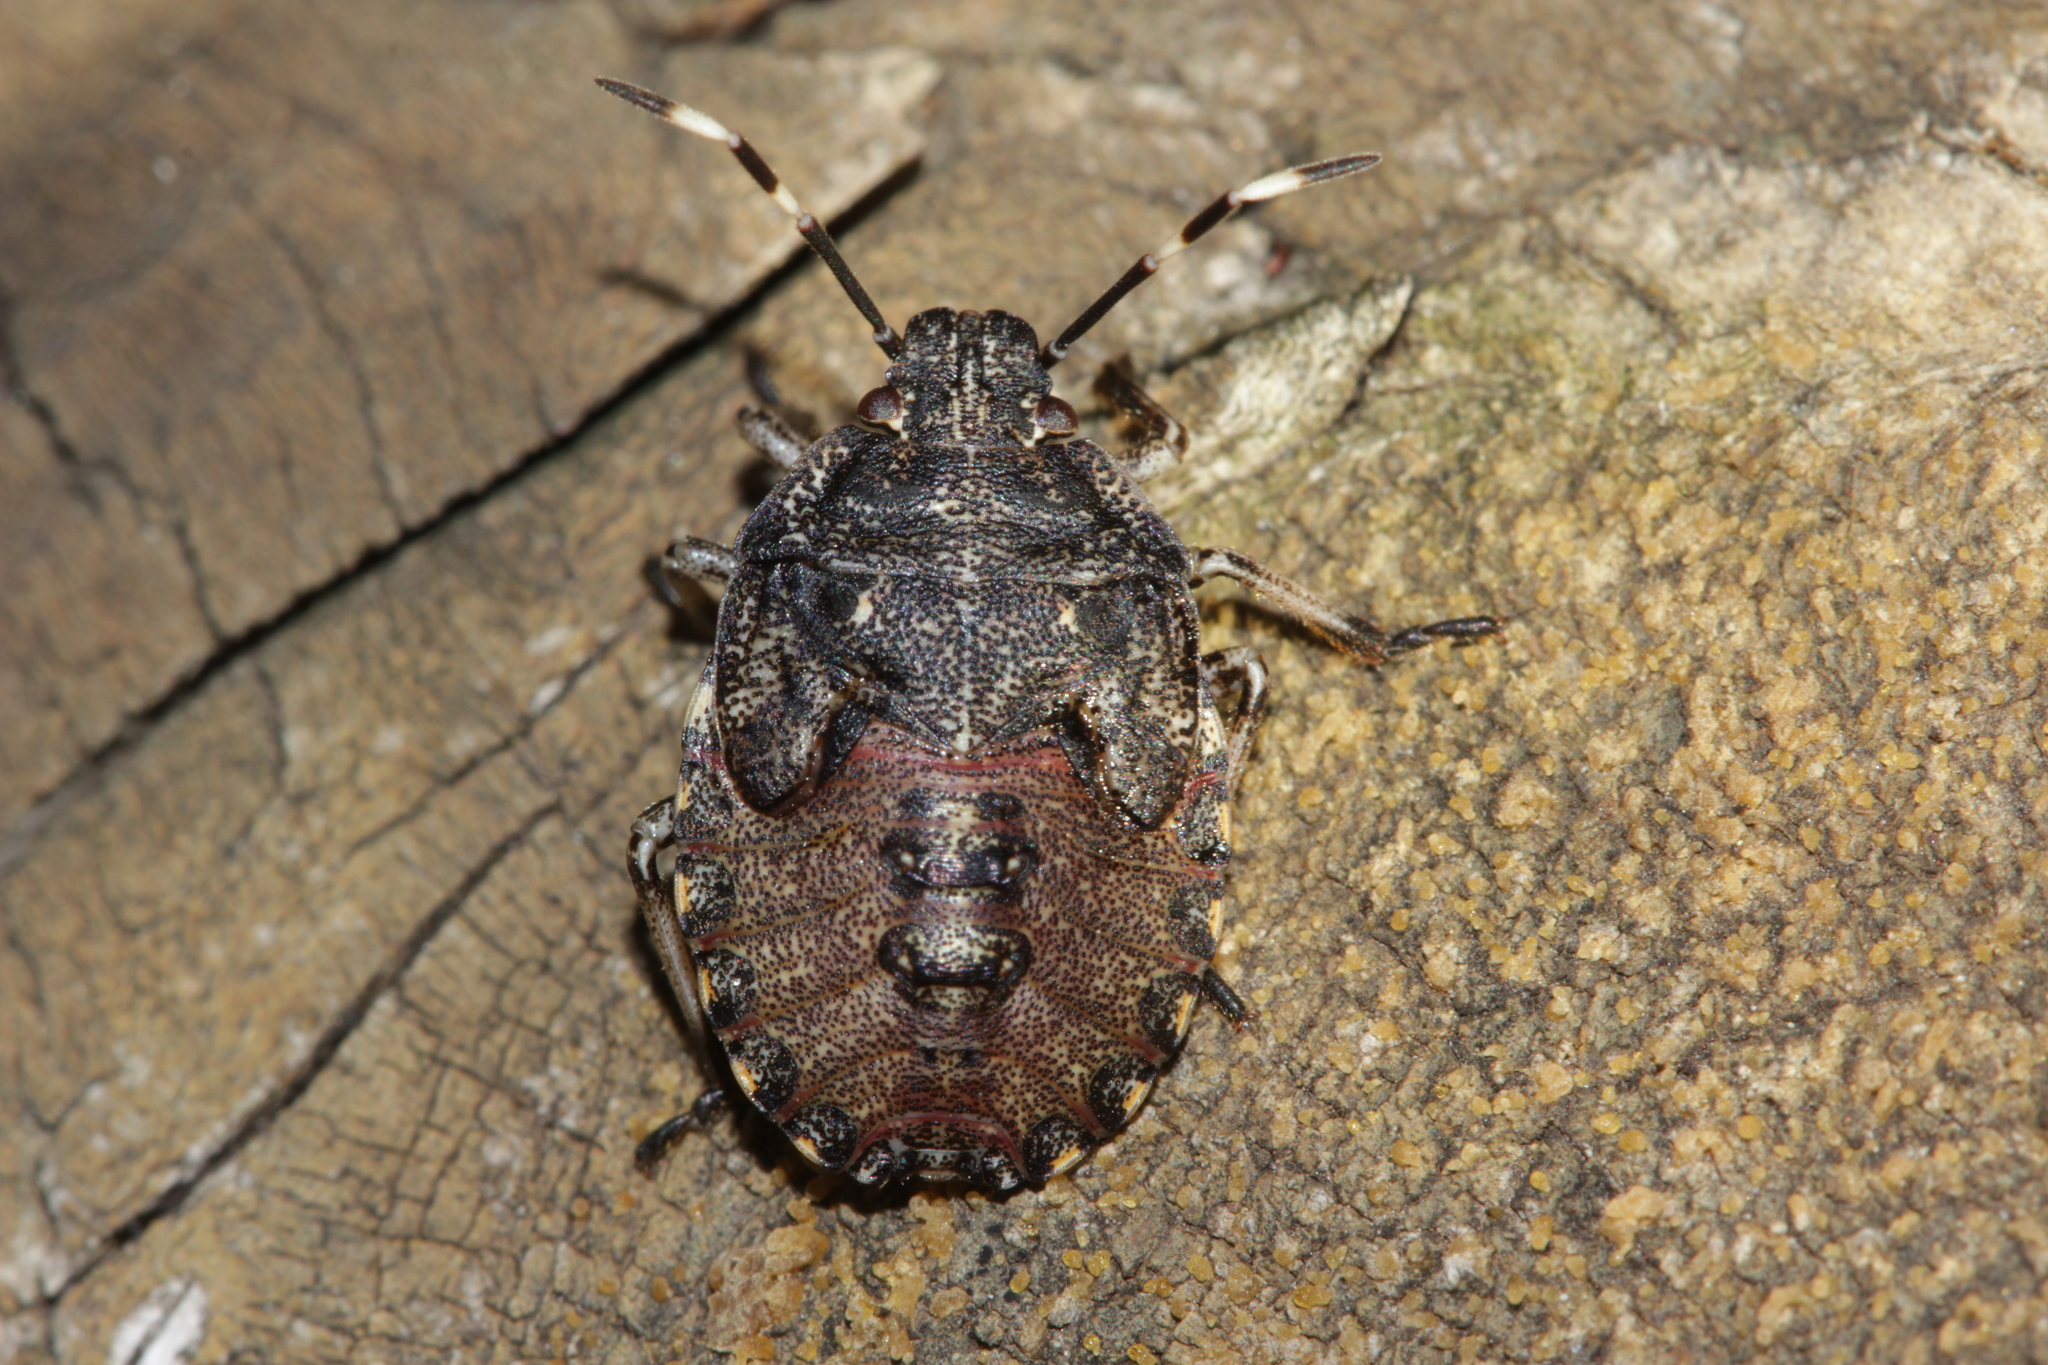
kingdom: Animalia
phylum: Arthropoda
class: Insecta
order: Hemiptera
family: Pentatomidae
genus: Rhaphigaster
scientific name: Rhaphigaster nebulosa
